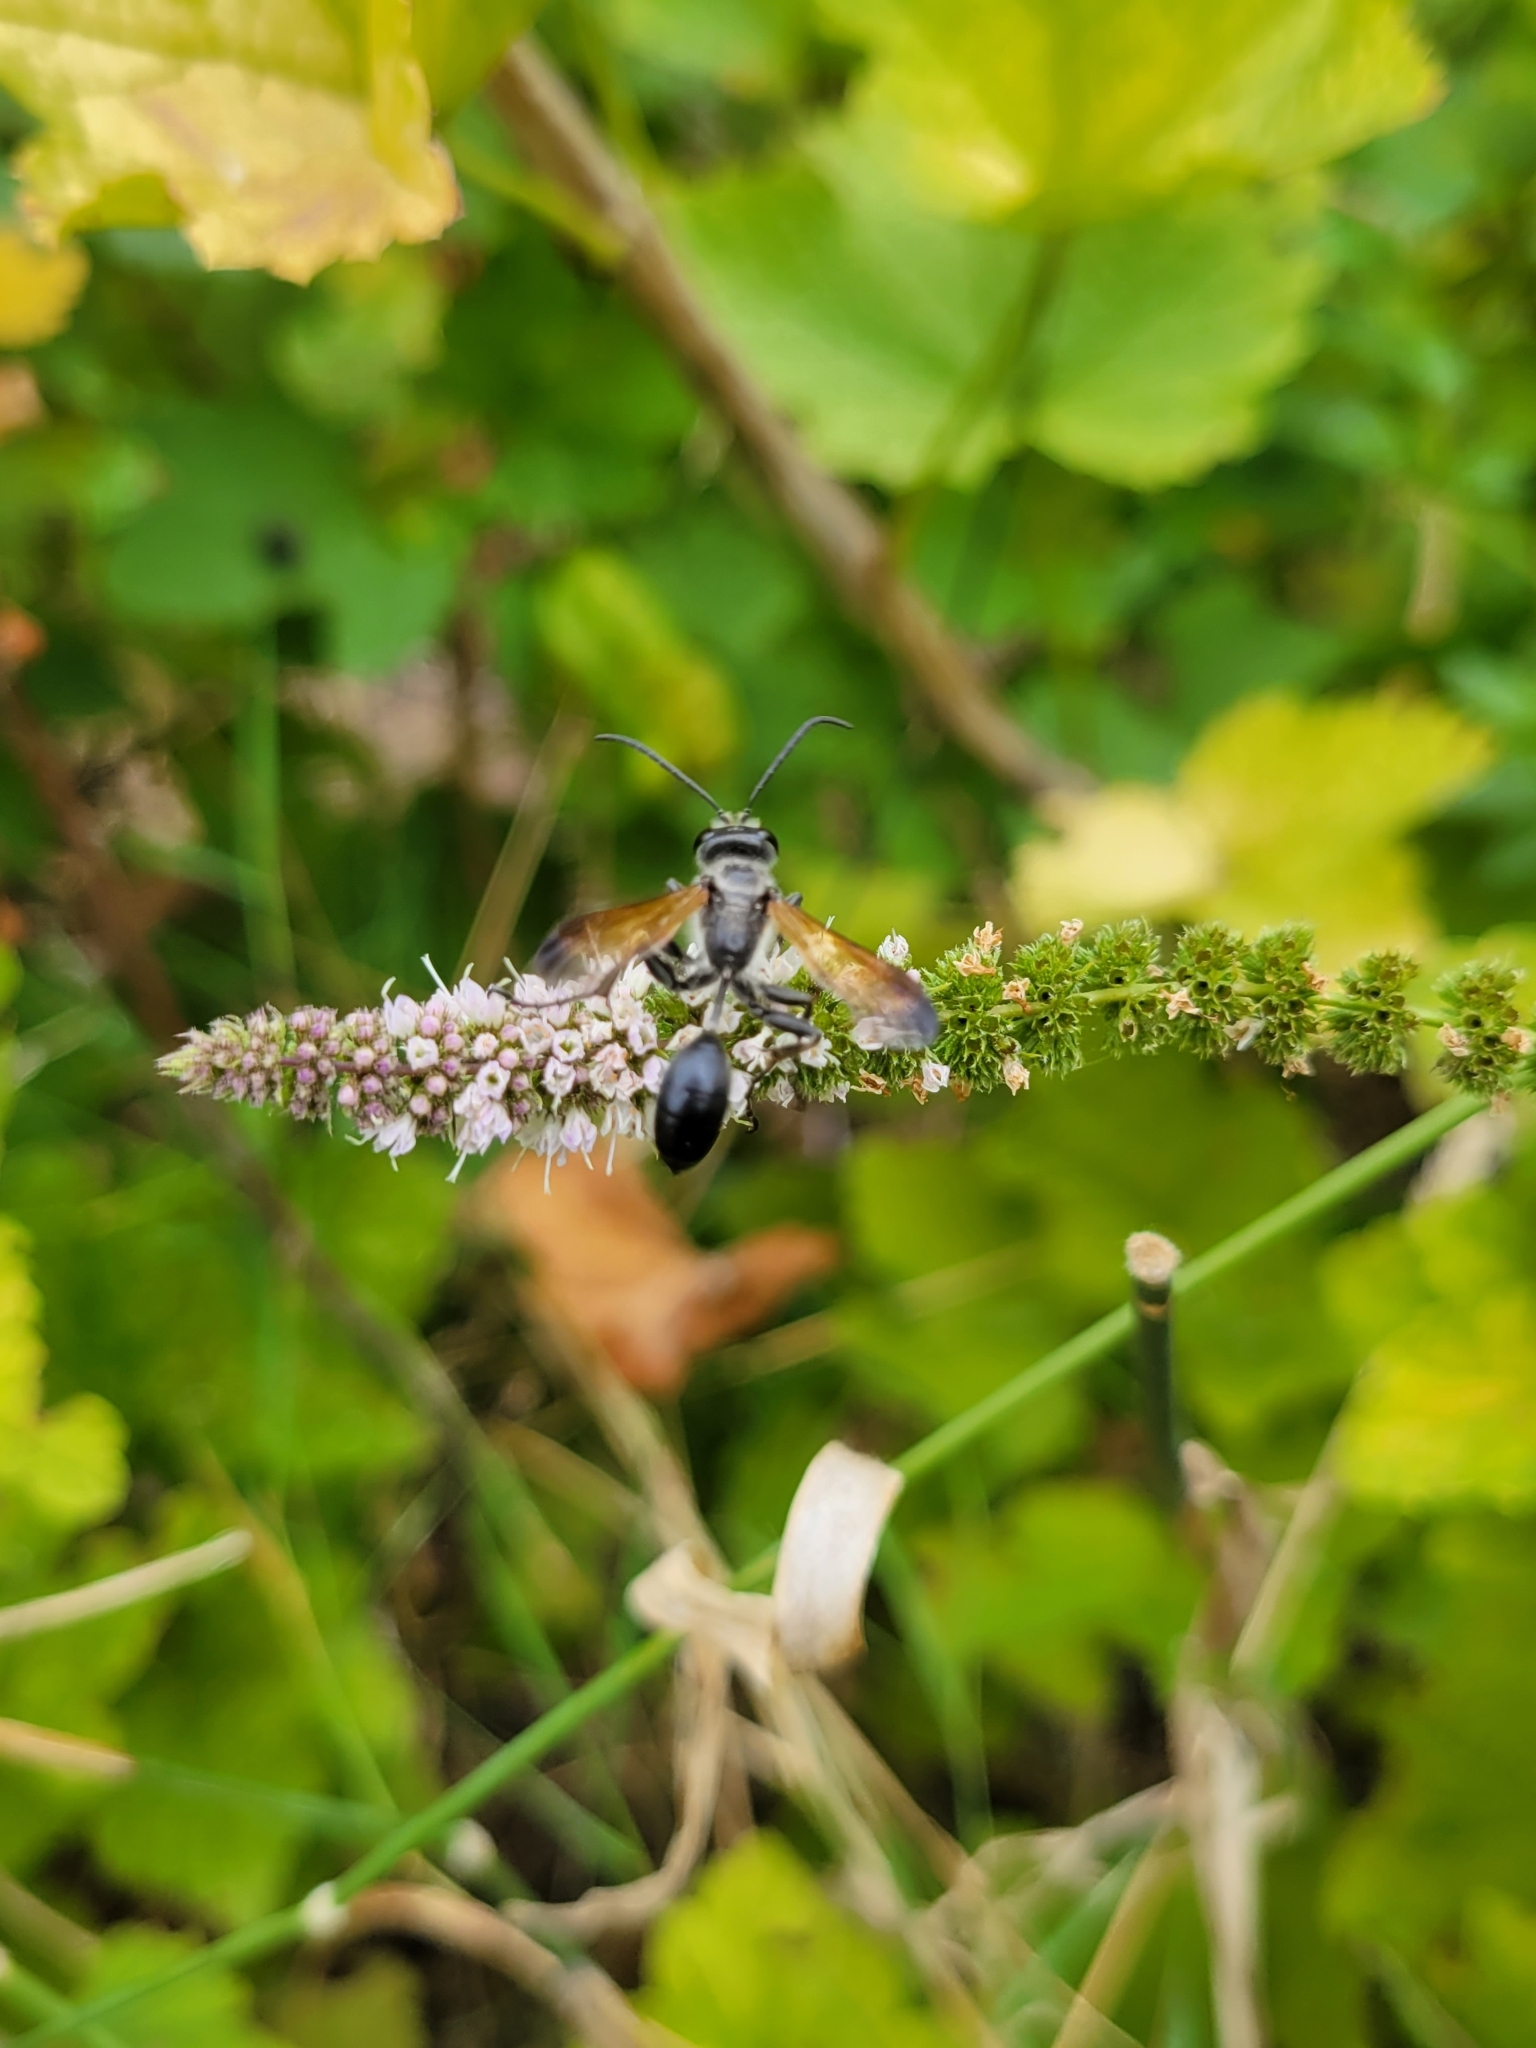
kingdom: Animalia
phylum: Arthropoda
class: Insecta
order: Hymenoptera
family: Sphecidae
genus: Isodontia
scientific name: Isodontia mexicana
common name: Mud dauber
